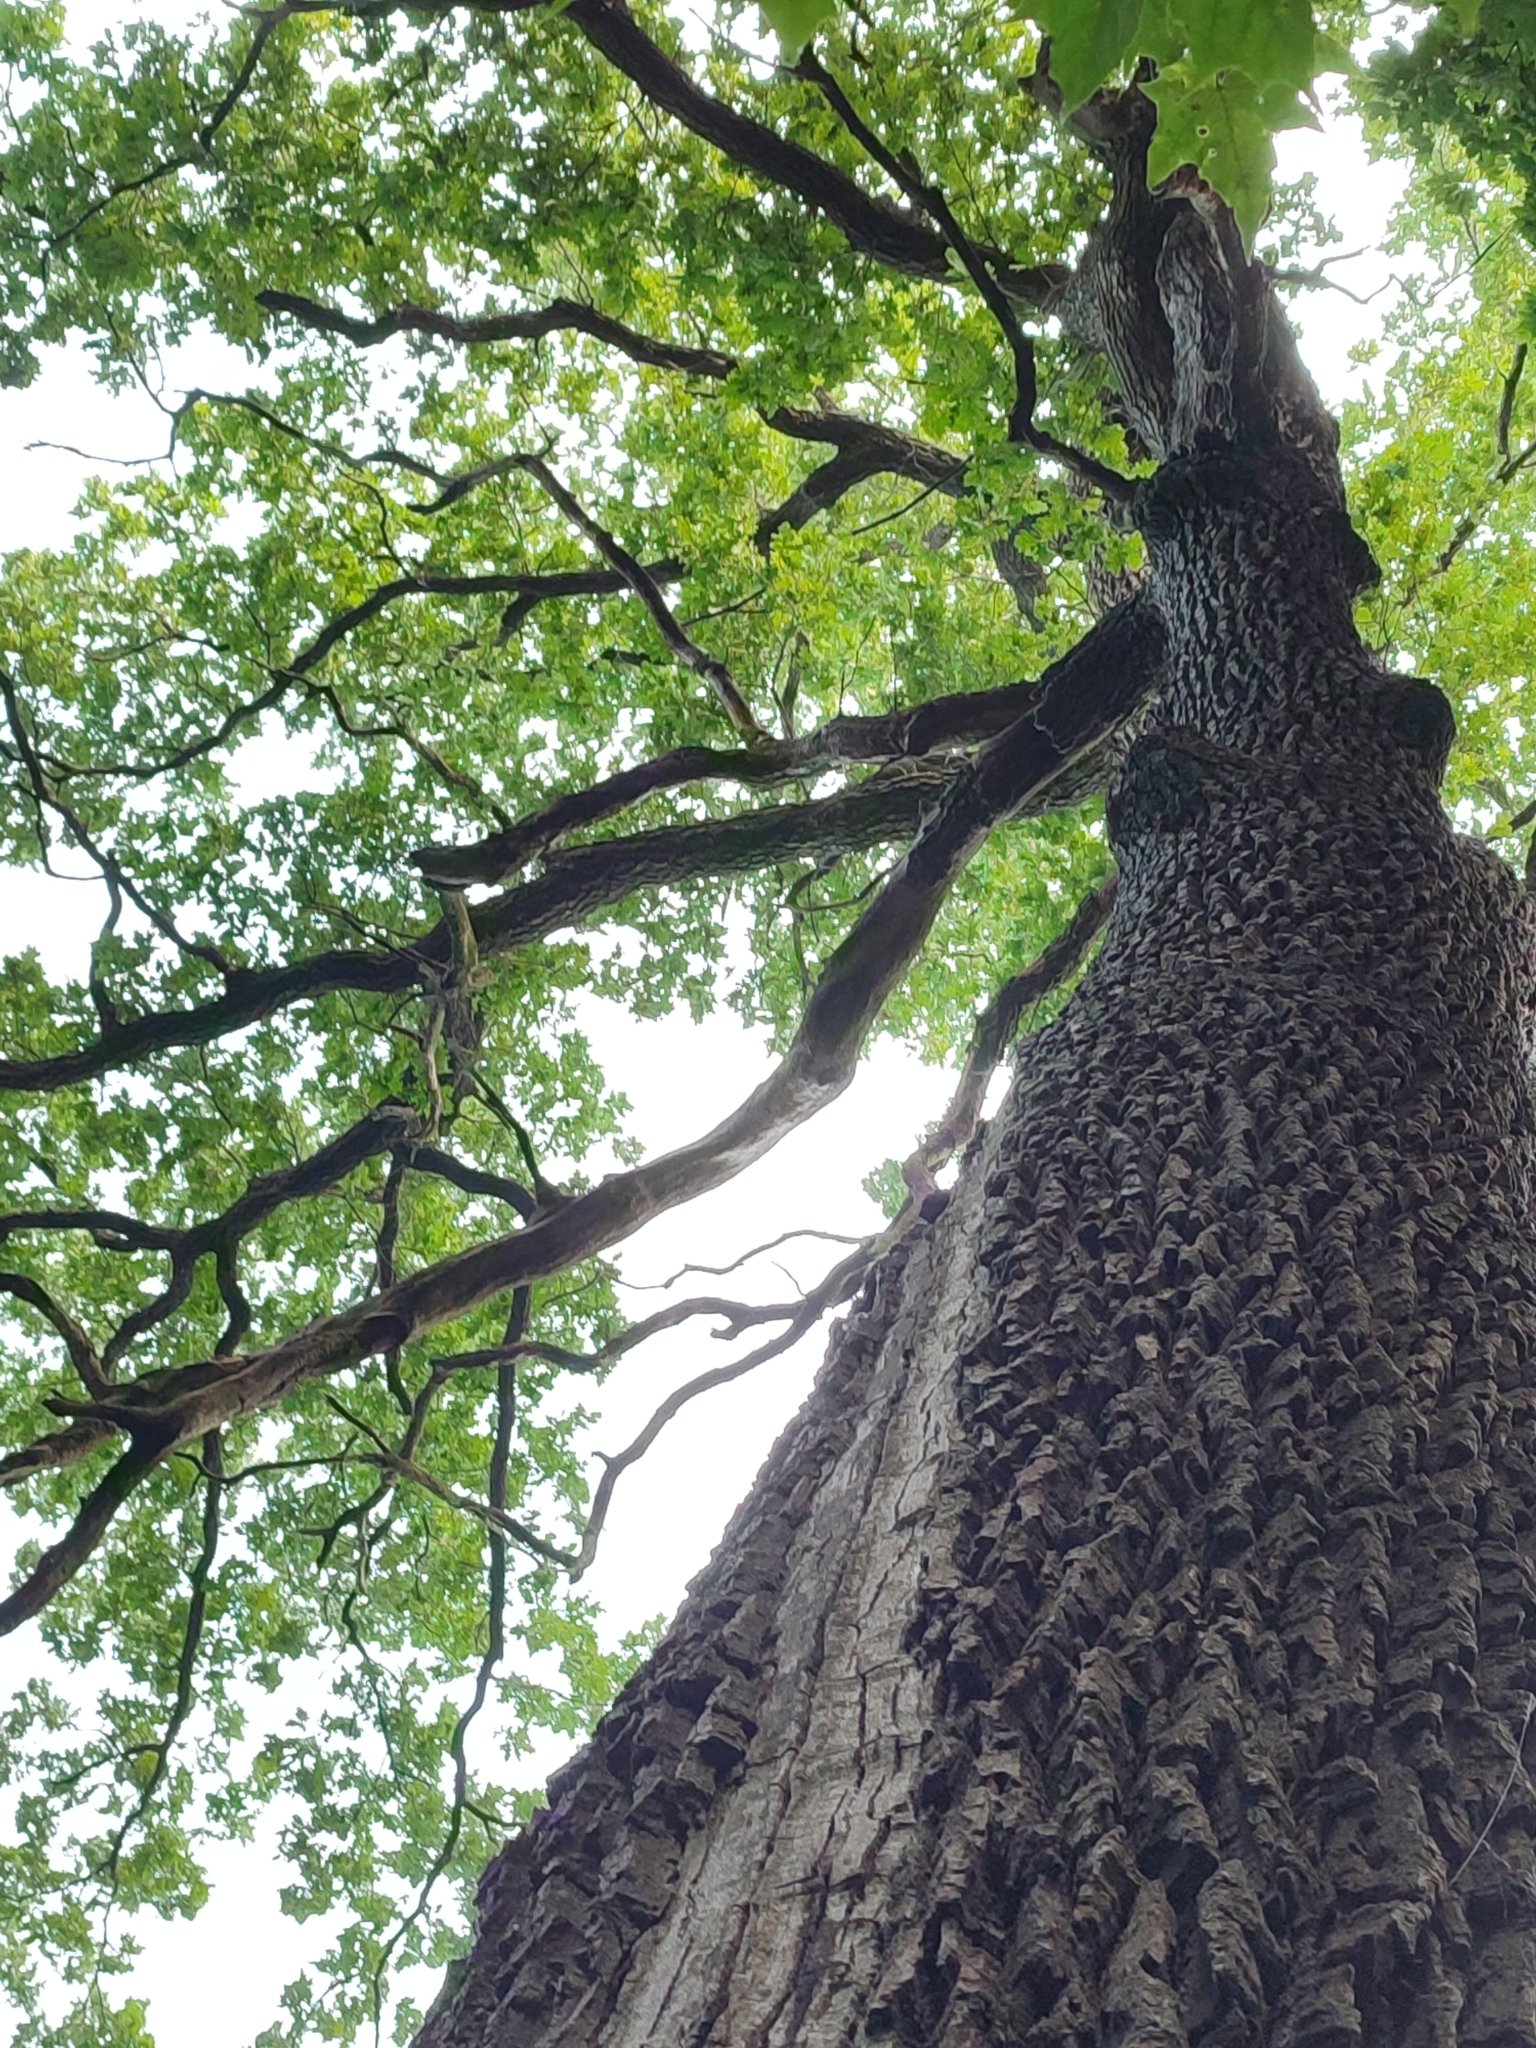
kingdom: Plantae
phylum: Tracheophyta
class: Magnoliopsida
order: Fagales
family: Fagaceae
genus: Quercus
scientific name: Quercus robur
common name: Pedunculate oak
